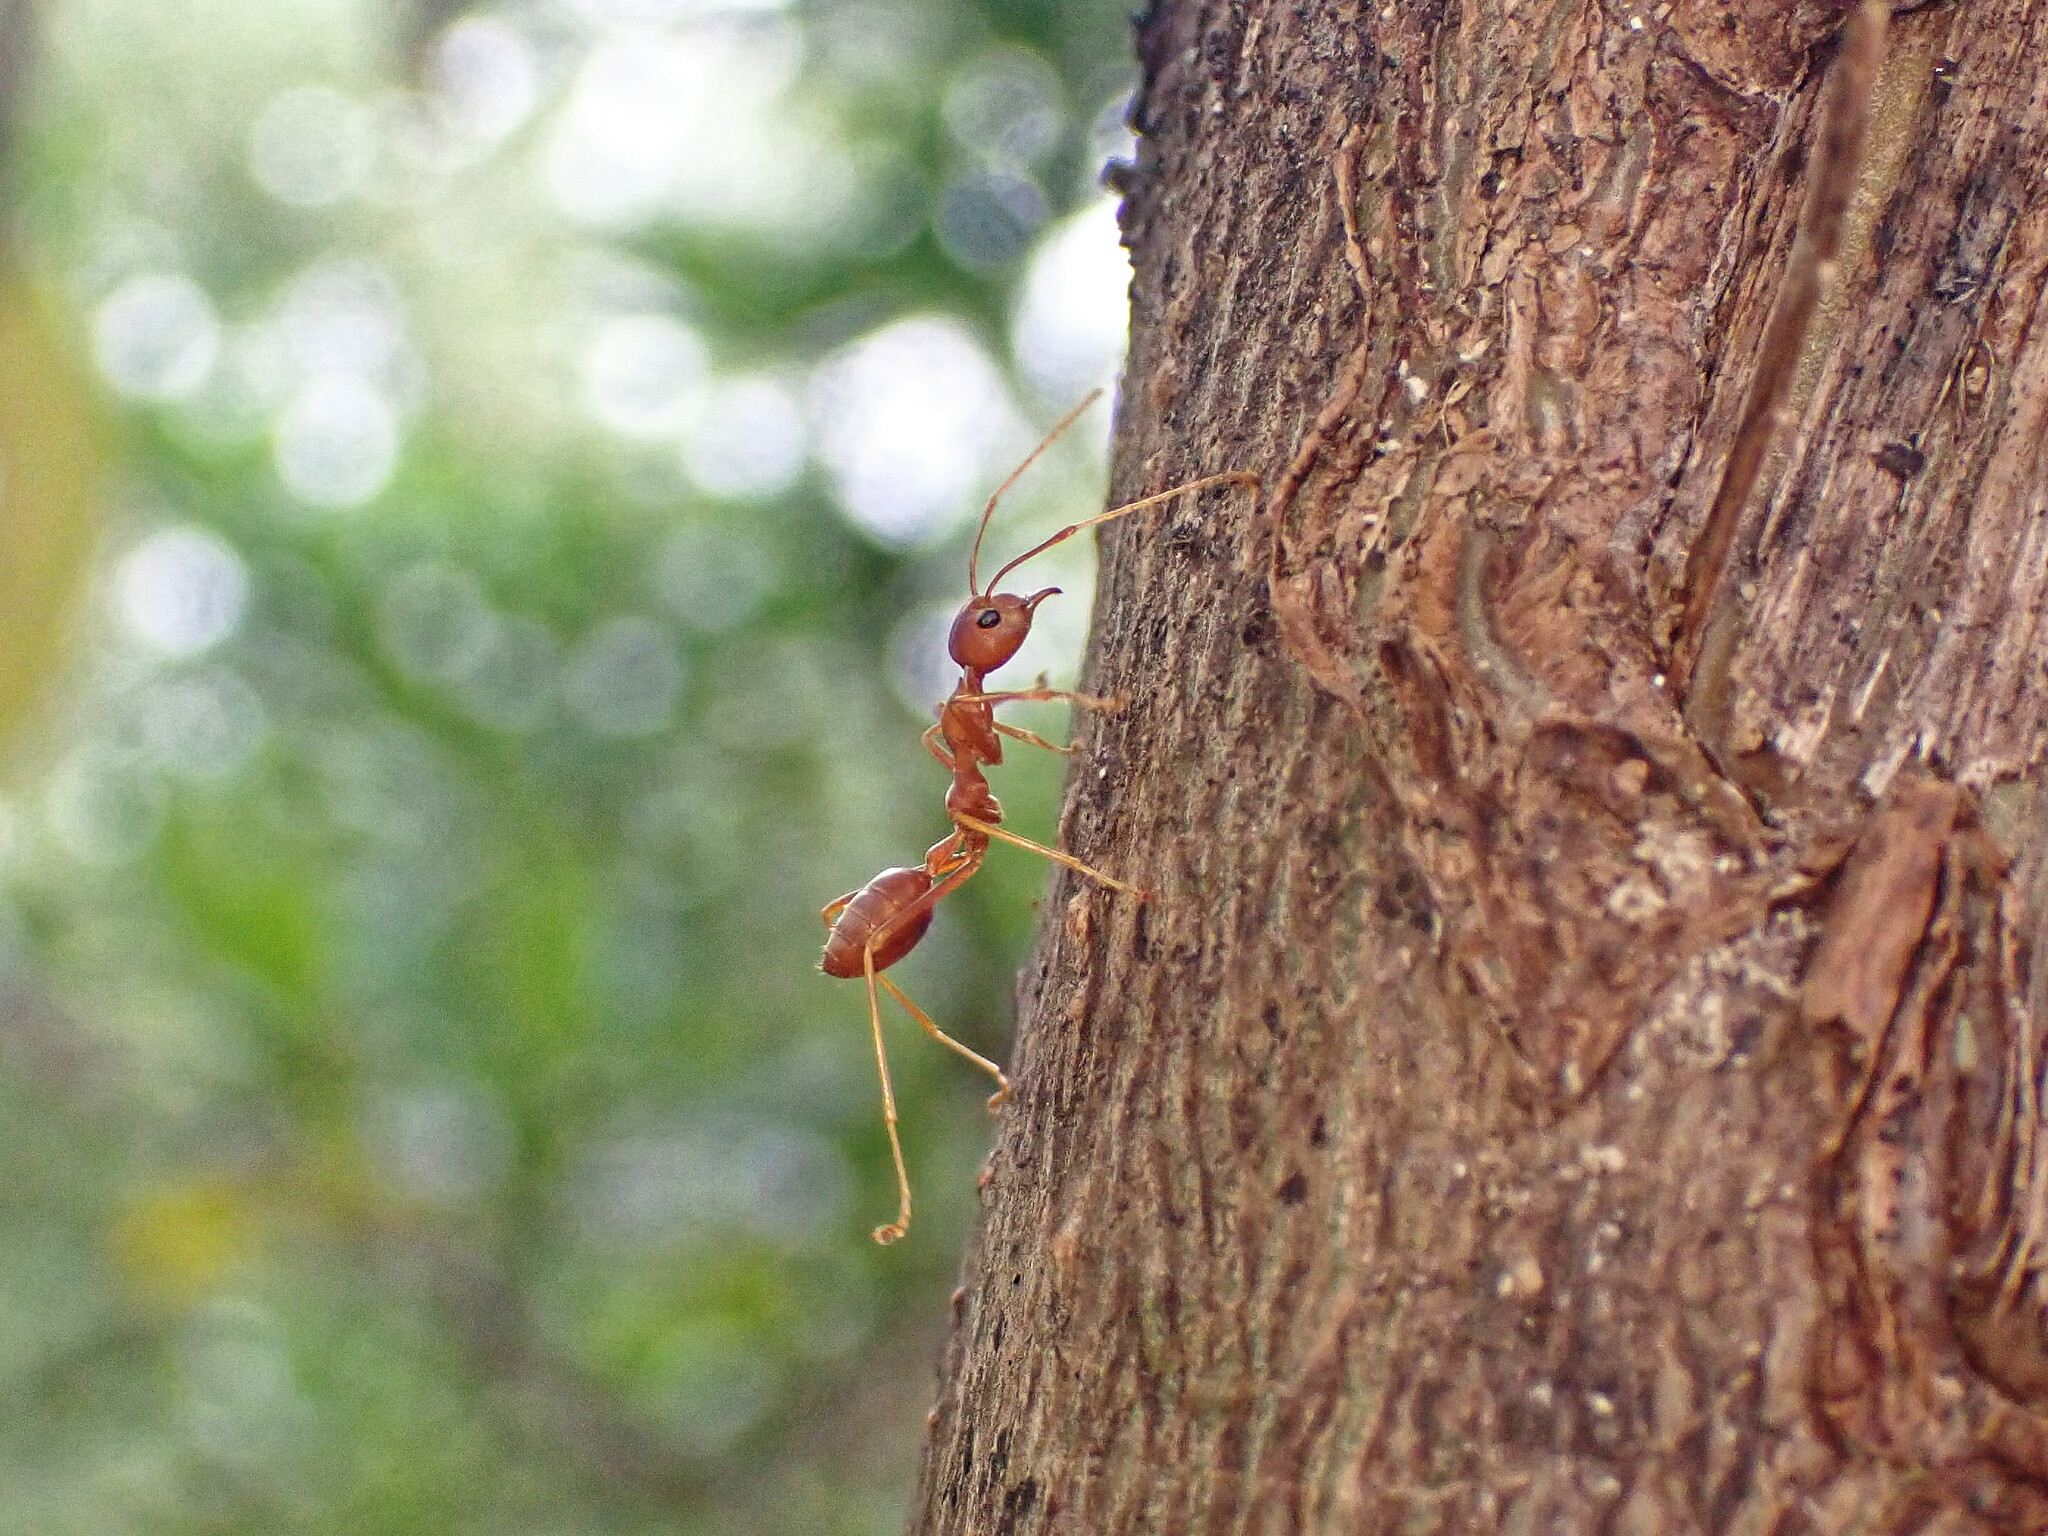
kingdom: Animalia
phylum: Arthropoda
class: Insecta
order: Hymenoptera
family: Formicidae
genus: Oecophylla
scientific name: Oecophylla smaragdina
